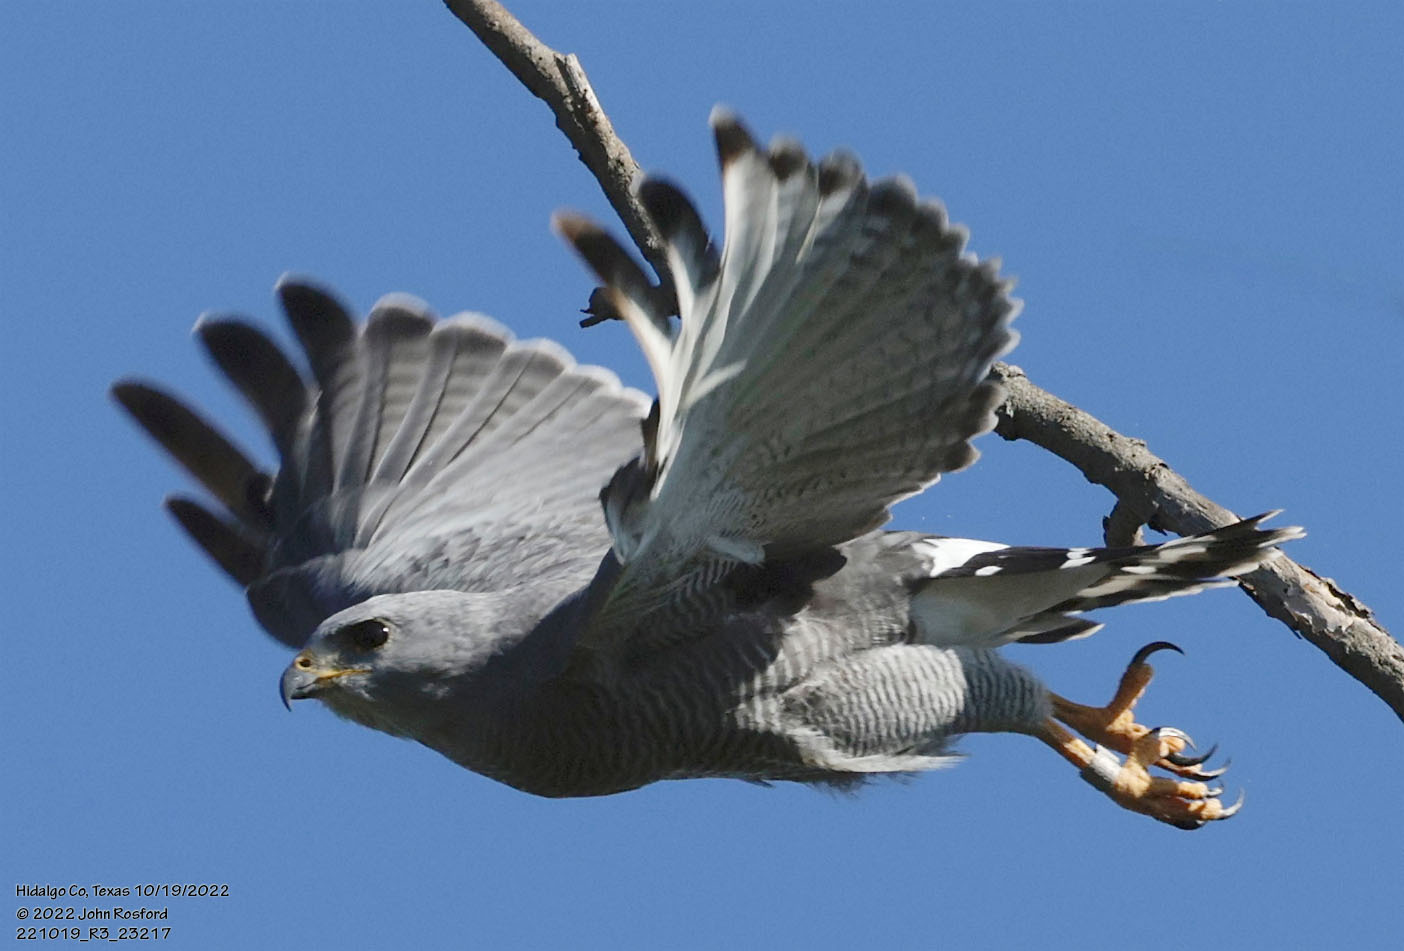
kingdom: Animalia
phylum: Chordata
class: Aves
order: Accipitriformes
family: Accipitridae
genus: Buteo
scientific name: Buteo nitidus
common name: Grey-lined hawk
